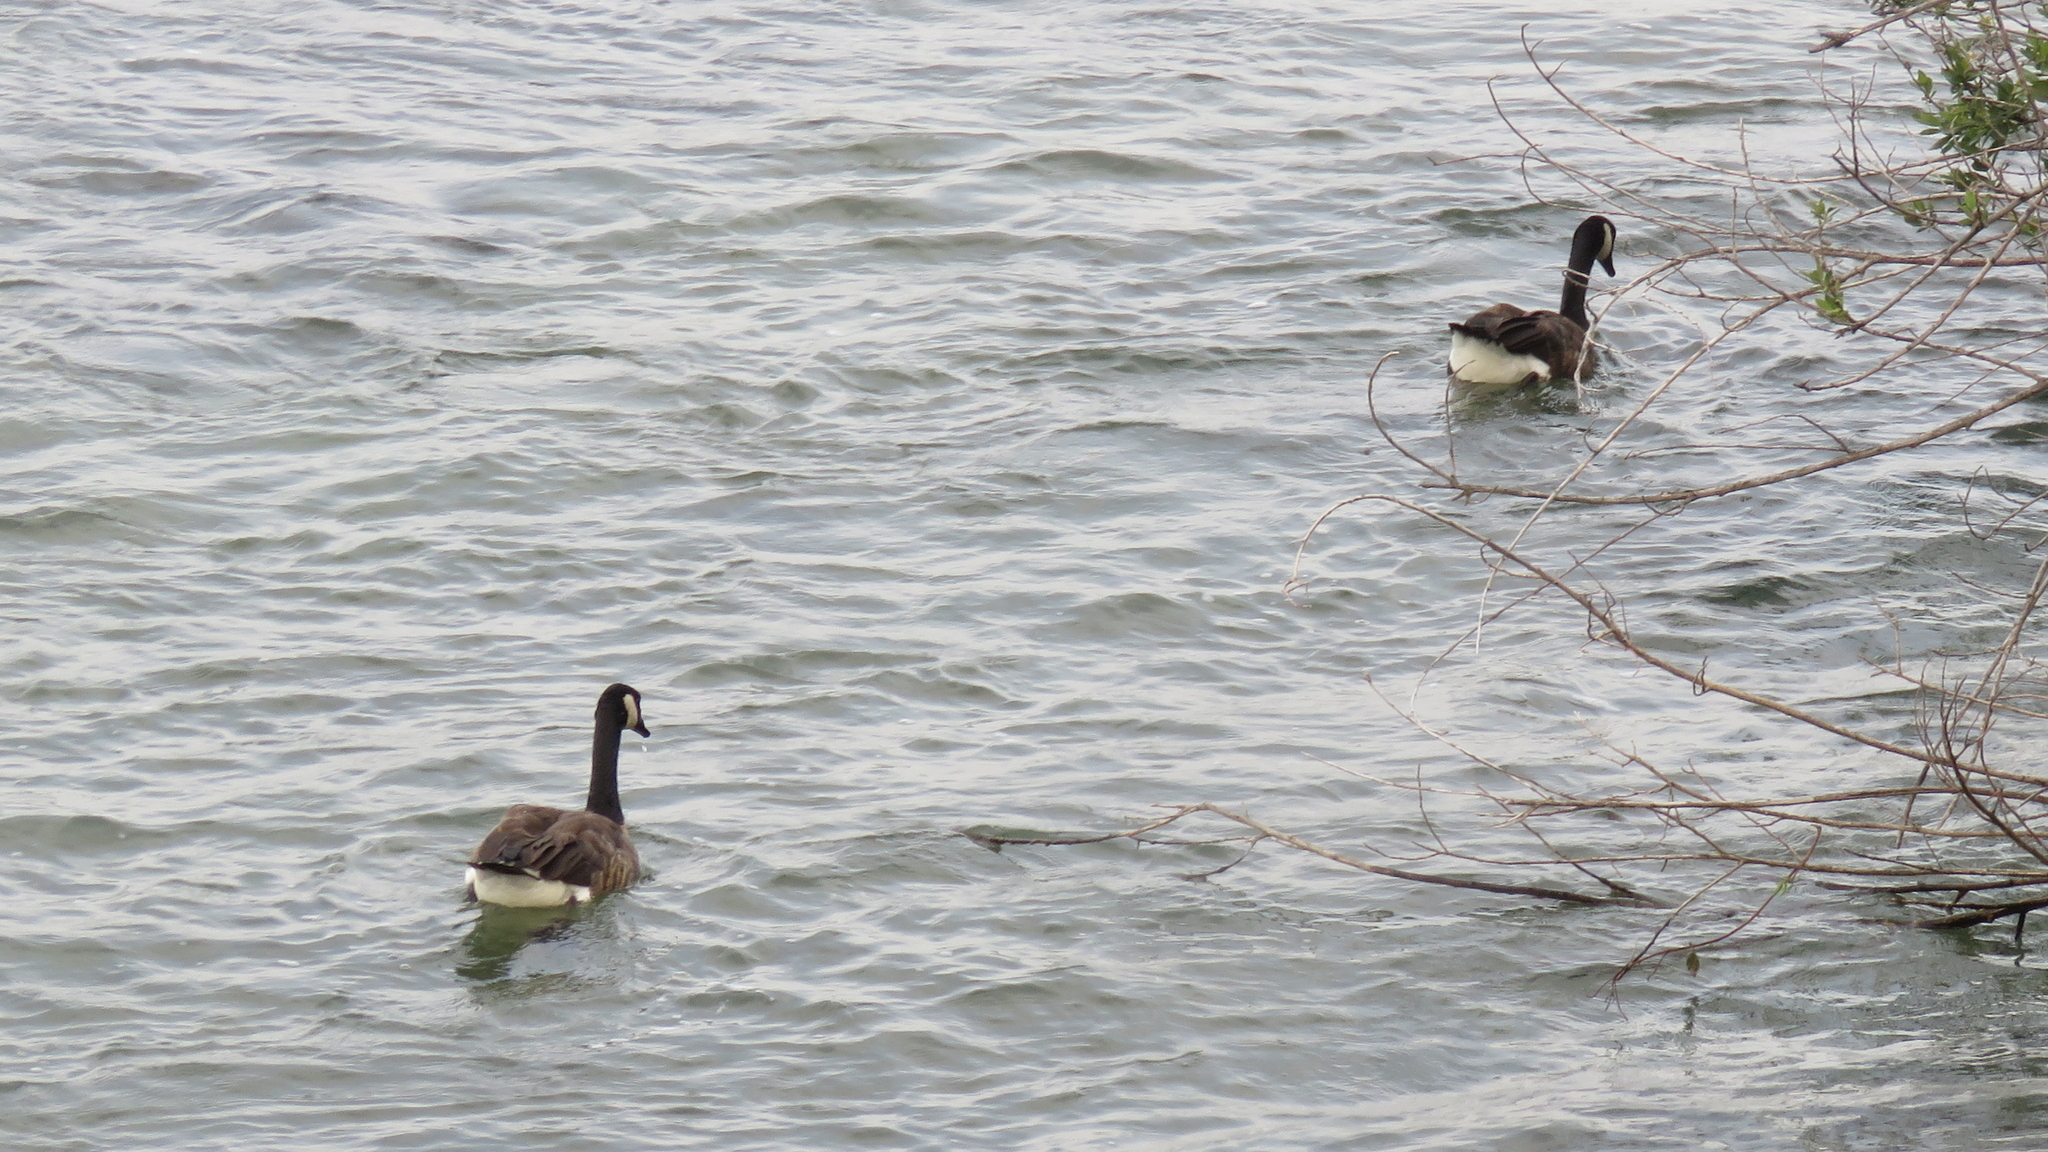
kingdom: Animalia
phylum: Chordata
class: Aves
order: Anseriformes
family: Anatidae
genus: Branta
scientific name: Branta canadensis
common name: Canada goose
